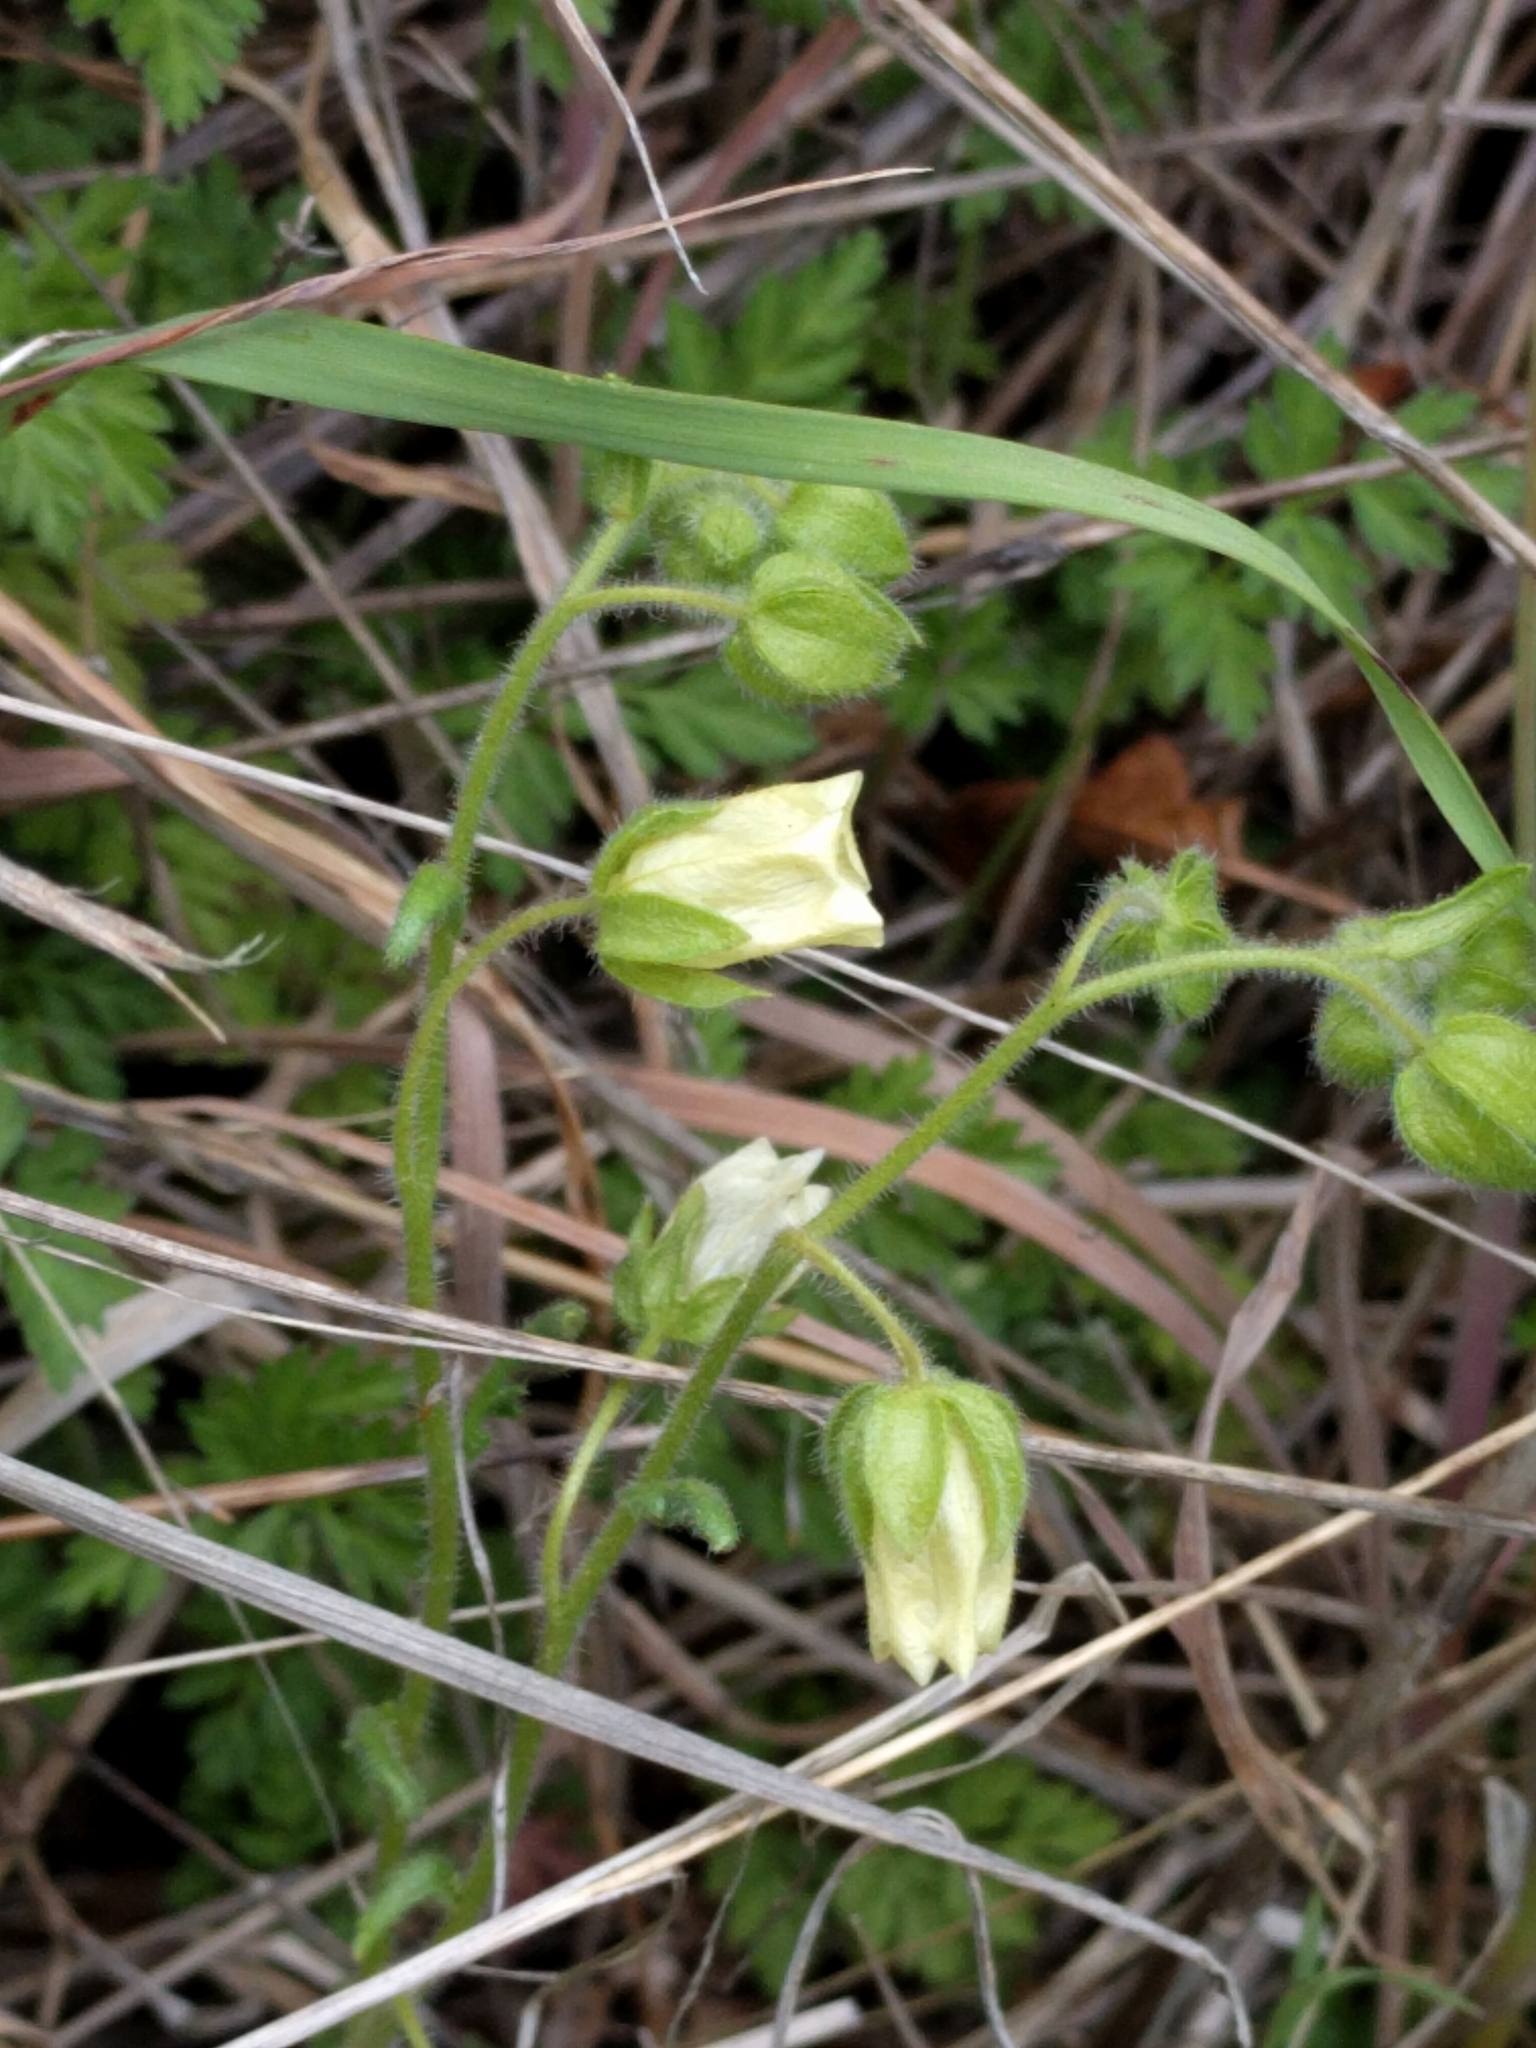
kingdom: Plantae
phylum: Tracheophyta
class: Magnoliopsida
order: Boraginales
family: Hydrophyllaceae
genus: Emmenanthe
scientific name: Emmenanthe penduliflora
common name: Whispering-bells
